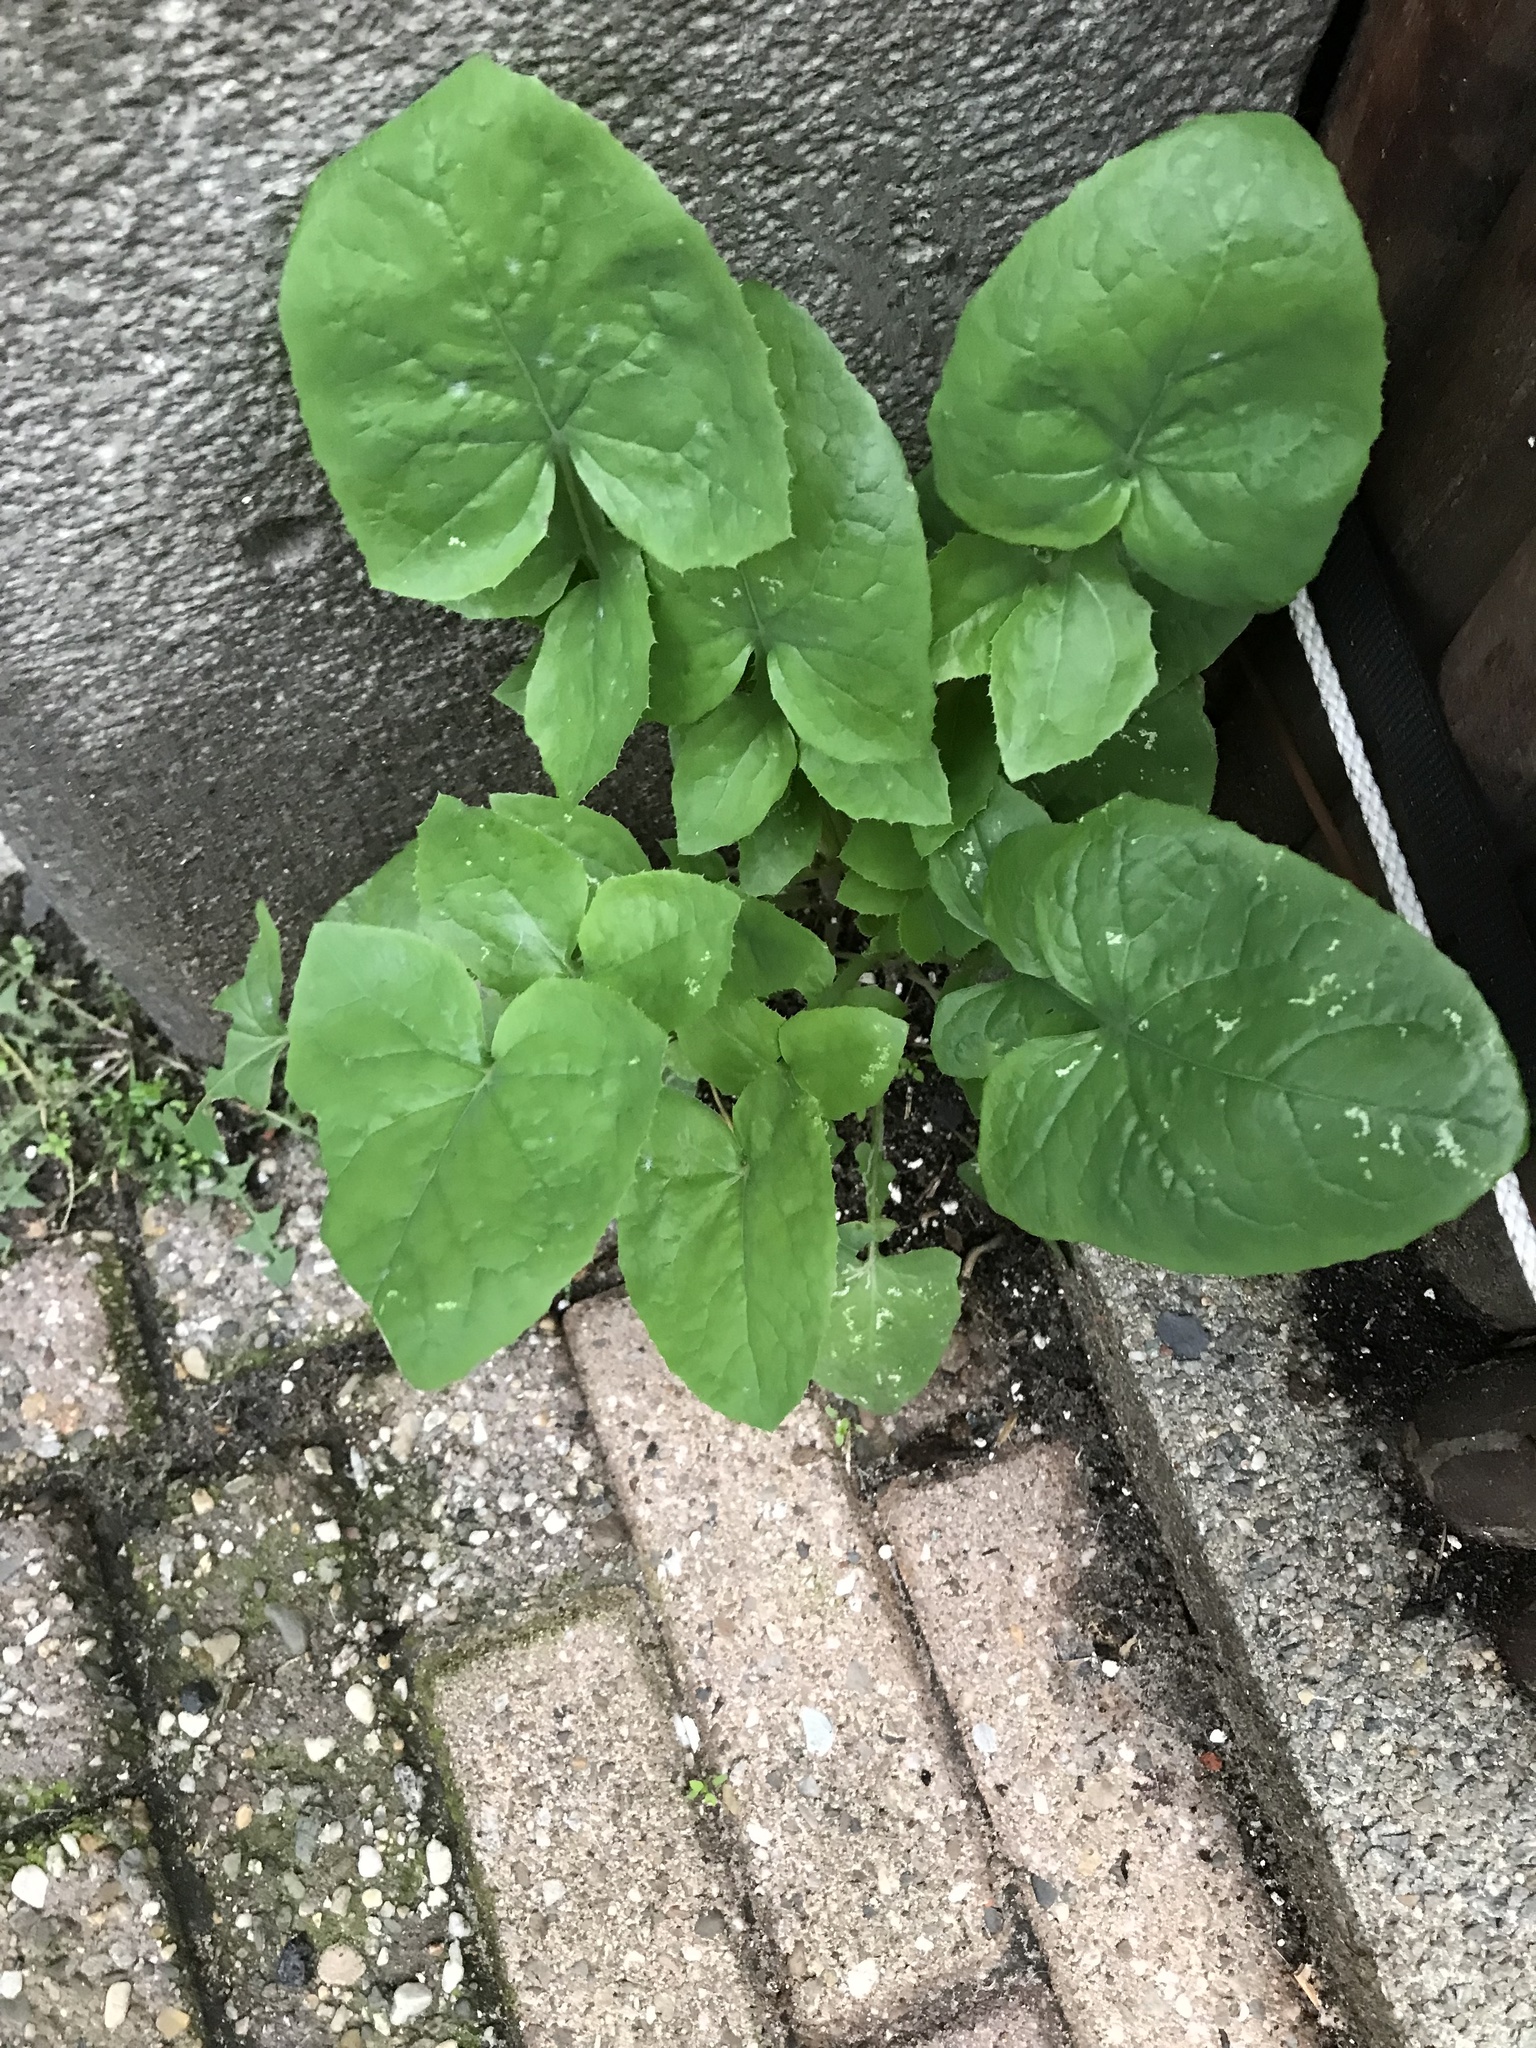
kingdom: Plantae
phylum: Tracheophyta
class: Magnoliopsida
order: Asterales
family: Asteraceae
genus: Sonchus
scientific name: Sonchus oleraceus
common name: Common sowthistle
